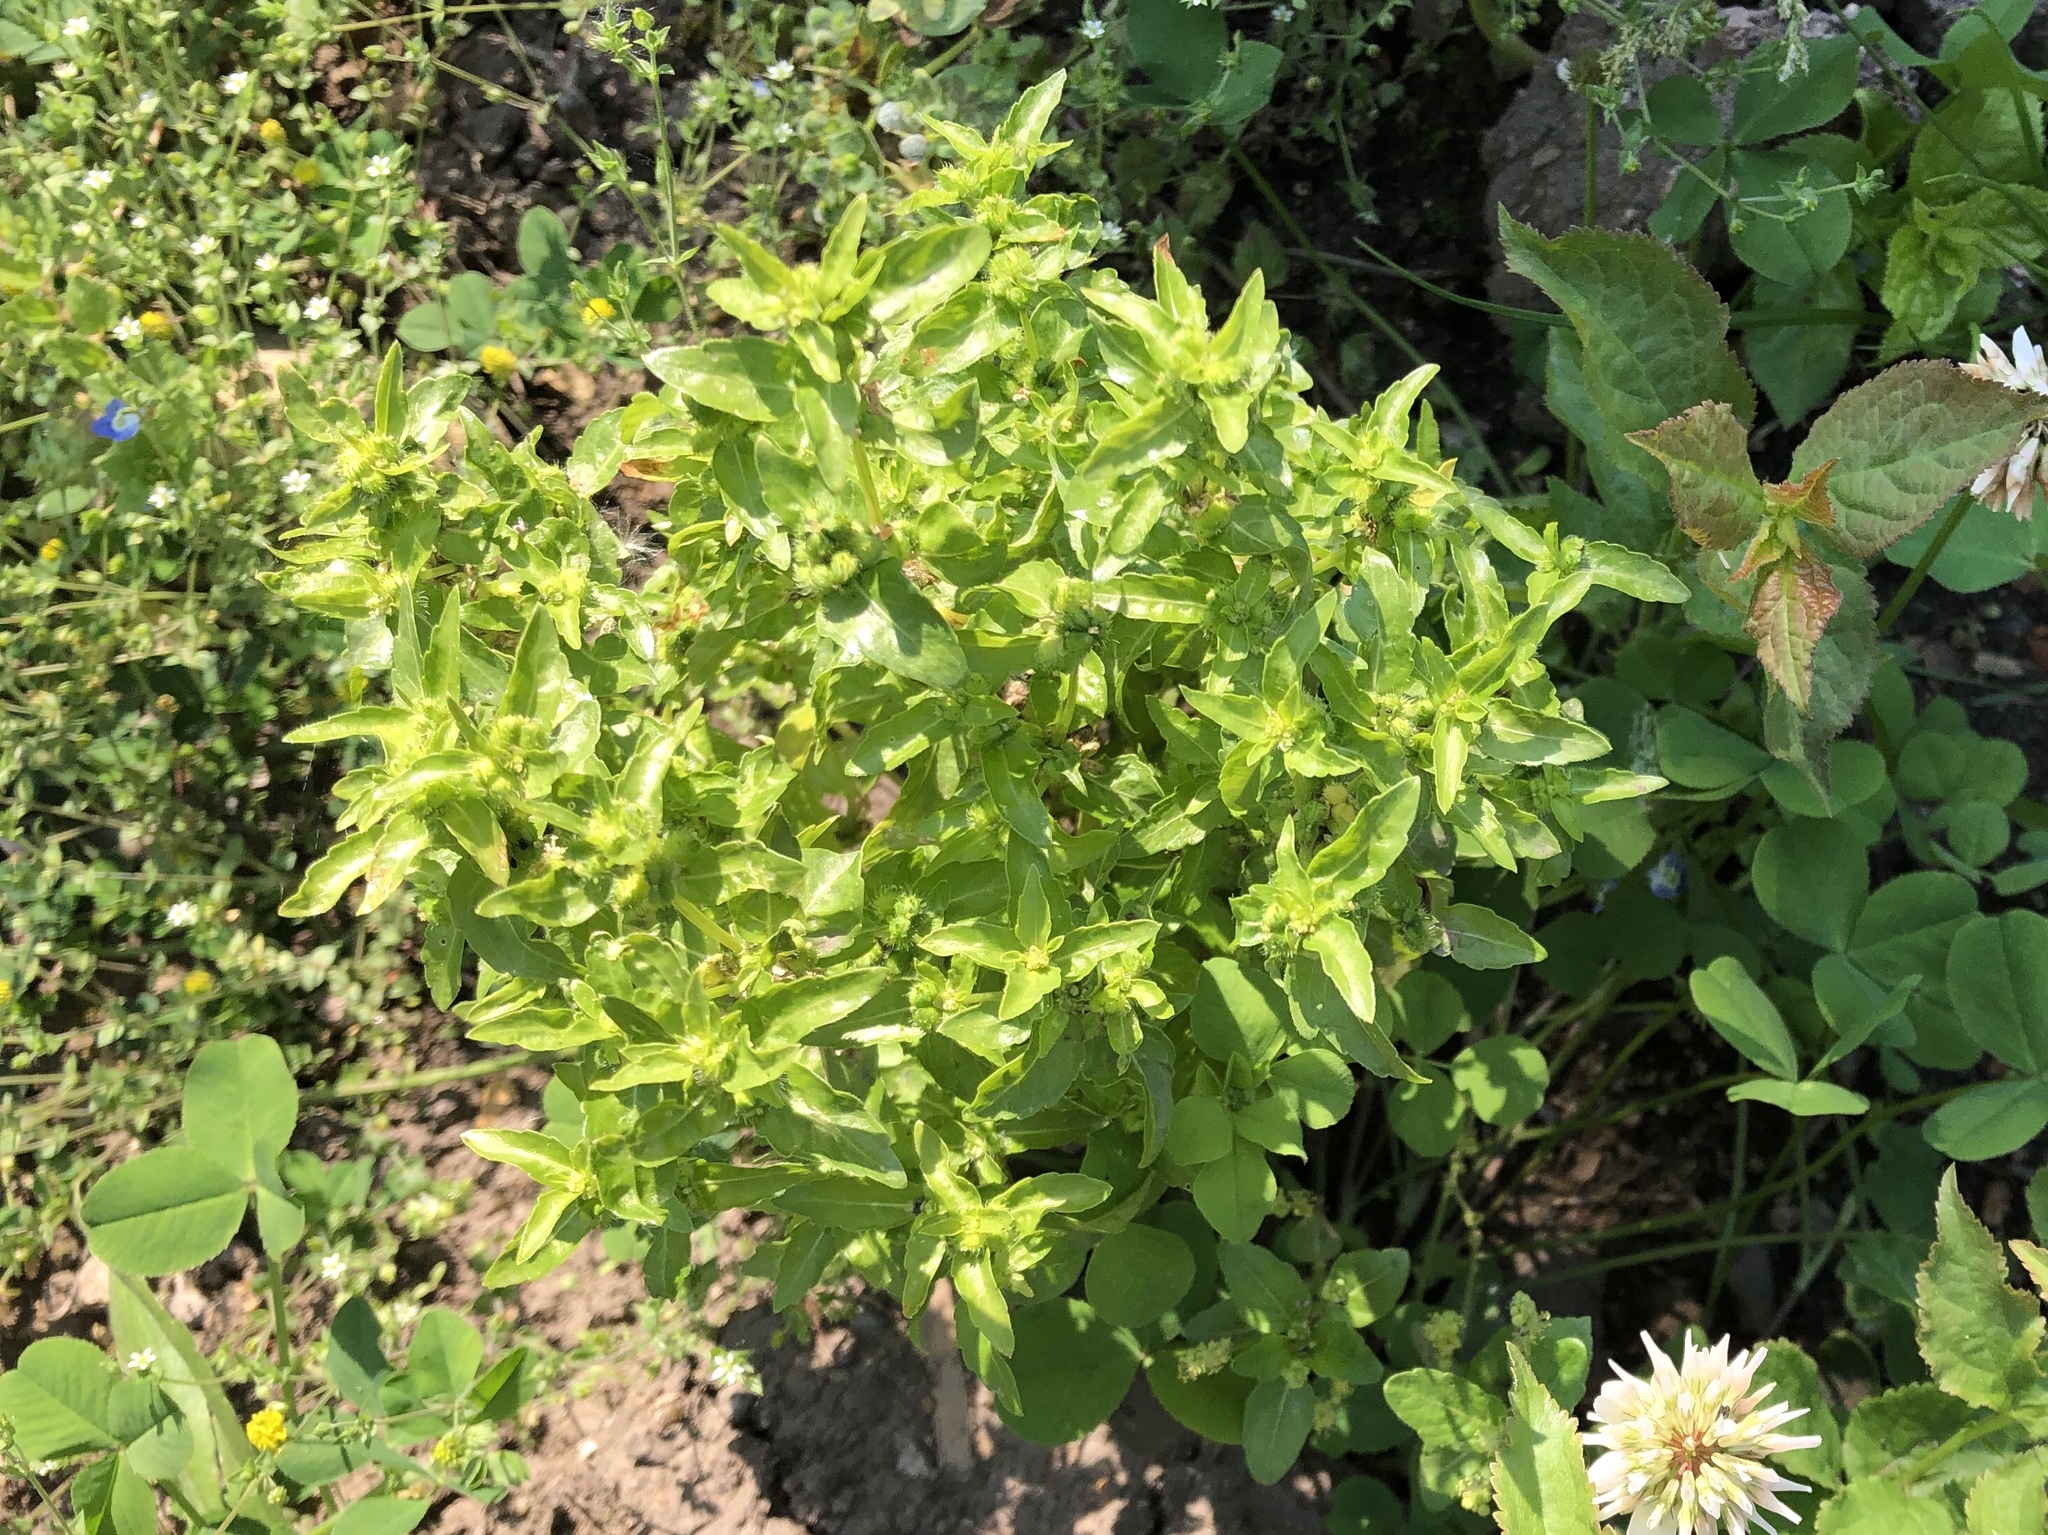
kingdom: Plantae
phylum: Tracheophyta
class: Magnoliopsida
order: Malpighiales
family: Euphorbiaceae
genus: Mercurialis
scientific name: Mercurialis annua
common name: Annual mercury
